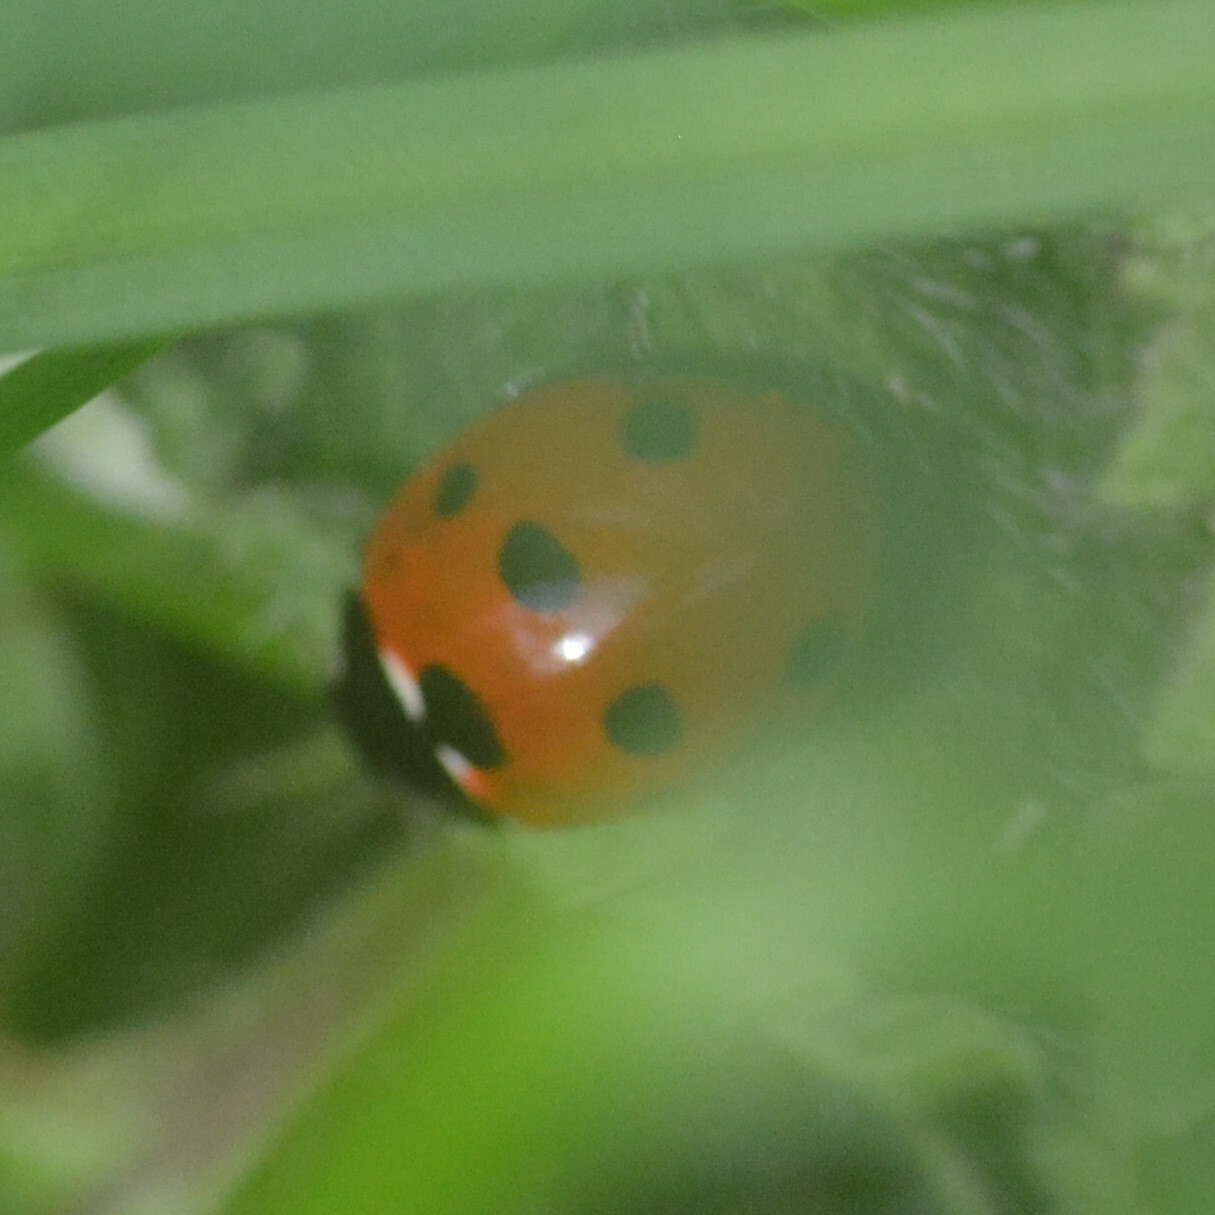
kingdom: Animalia
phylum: Arthropoda
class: Insecta
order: Coleoptera
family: Coccinellidae
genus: Coccinella
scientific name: Coccinella septempunctata
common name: Sevenspotted lady beetle
